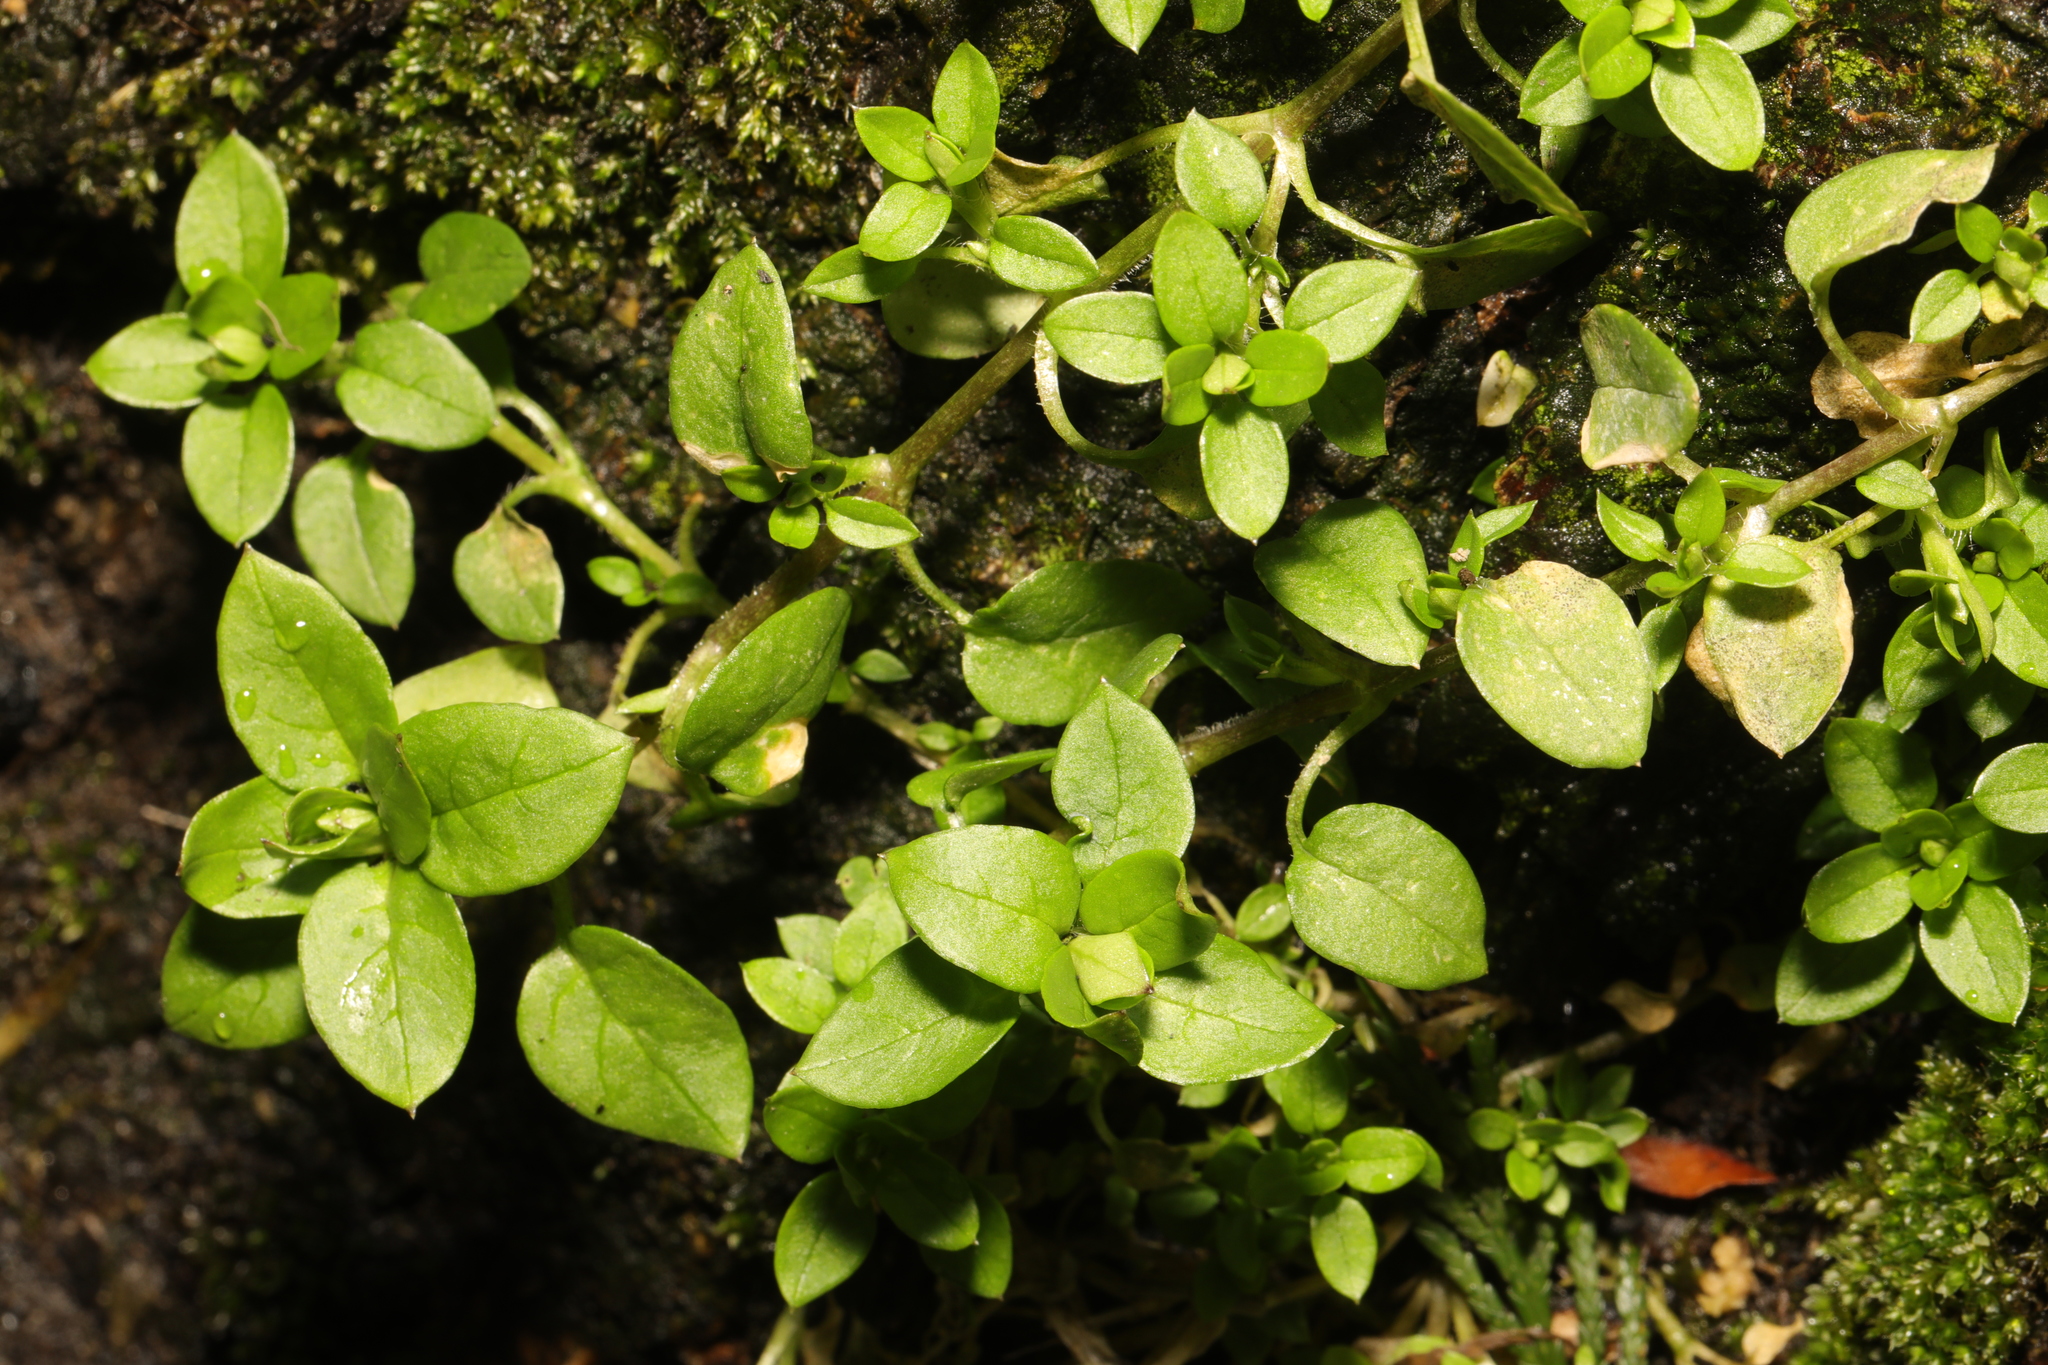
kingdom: Plantae
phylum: Tracheophyta
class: Magnoliopsida
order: Caryophyllales
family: Caryophyllaceae
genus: Stellaria
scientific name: Stellaria media
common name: Common chickweed
